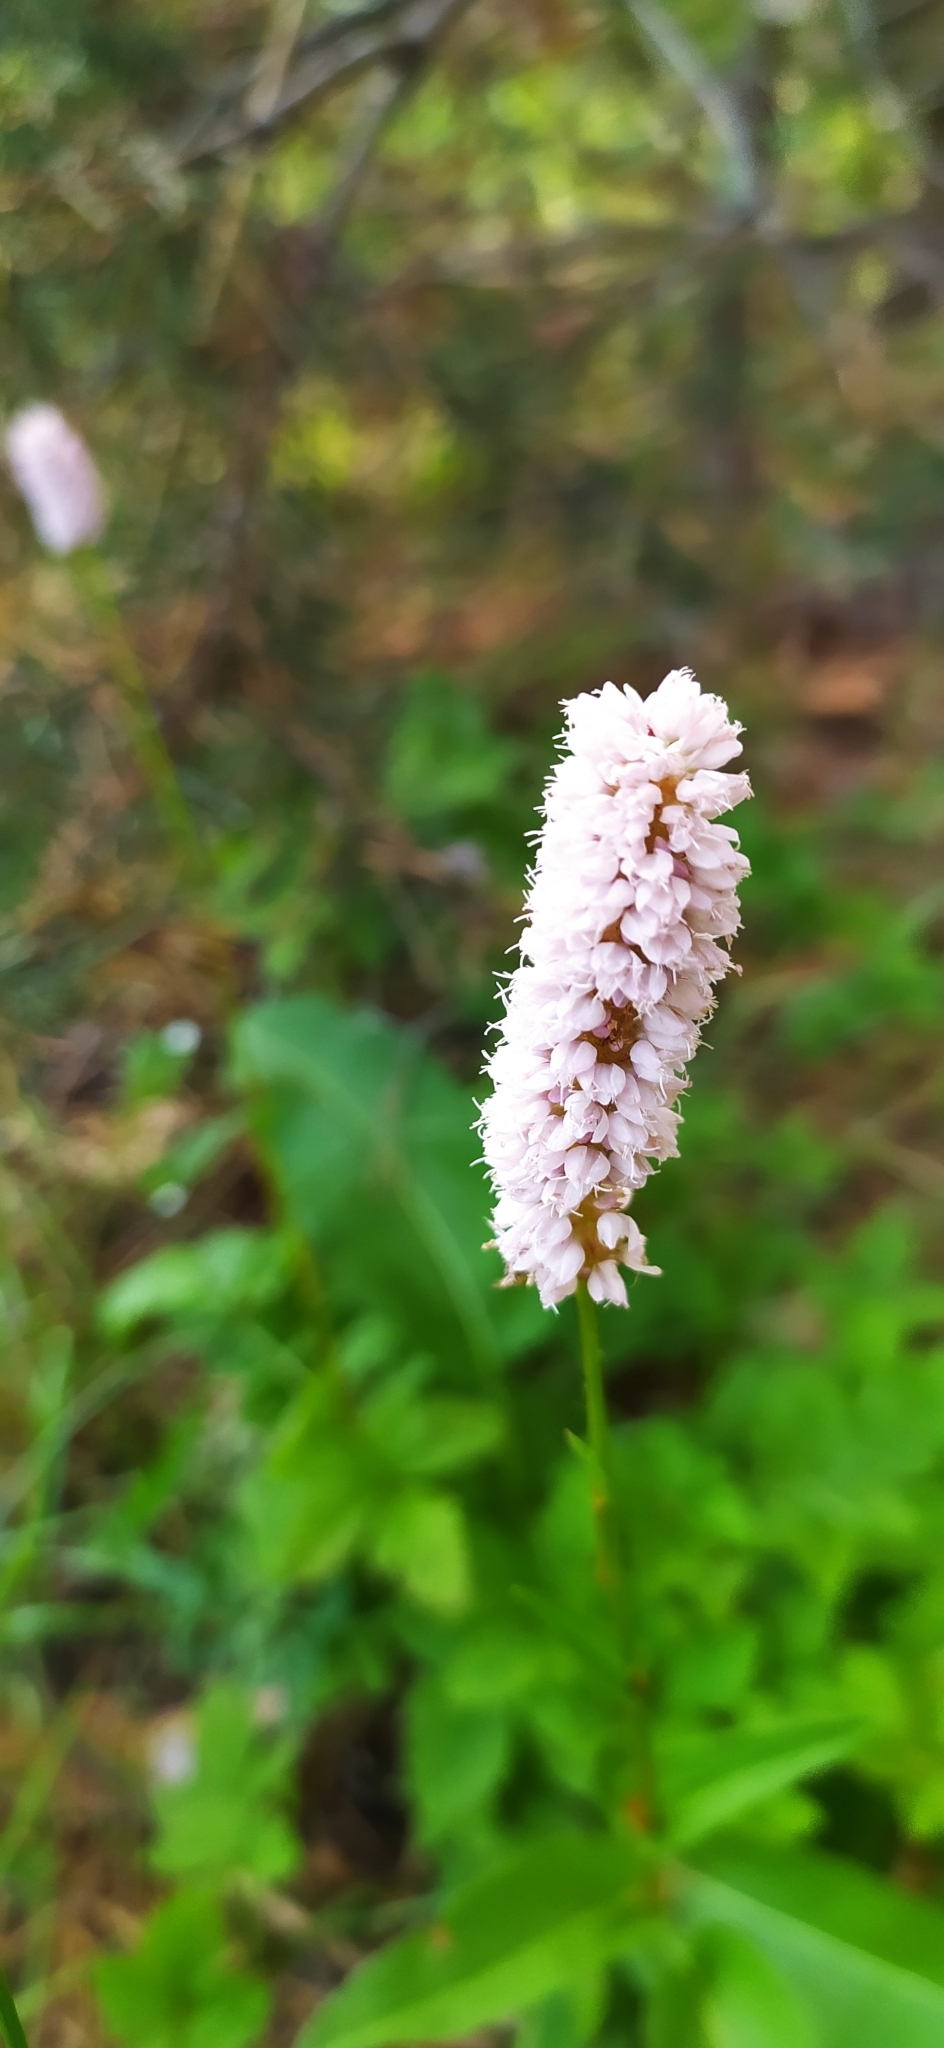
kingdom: Plantae
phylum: Tracheophyta
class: Magnoliopsida
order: Caryophyllales
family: Polygonaceae
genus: Bistorta
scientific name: Bistorta officinalis
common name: Common bistort
